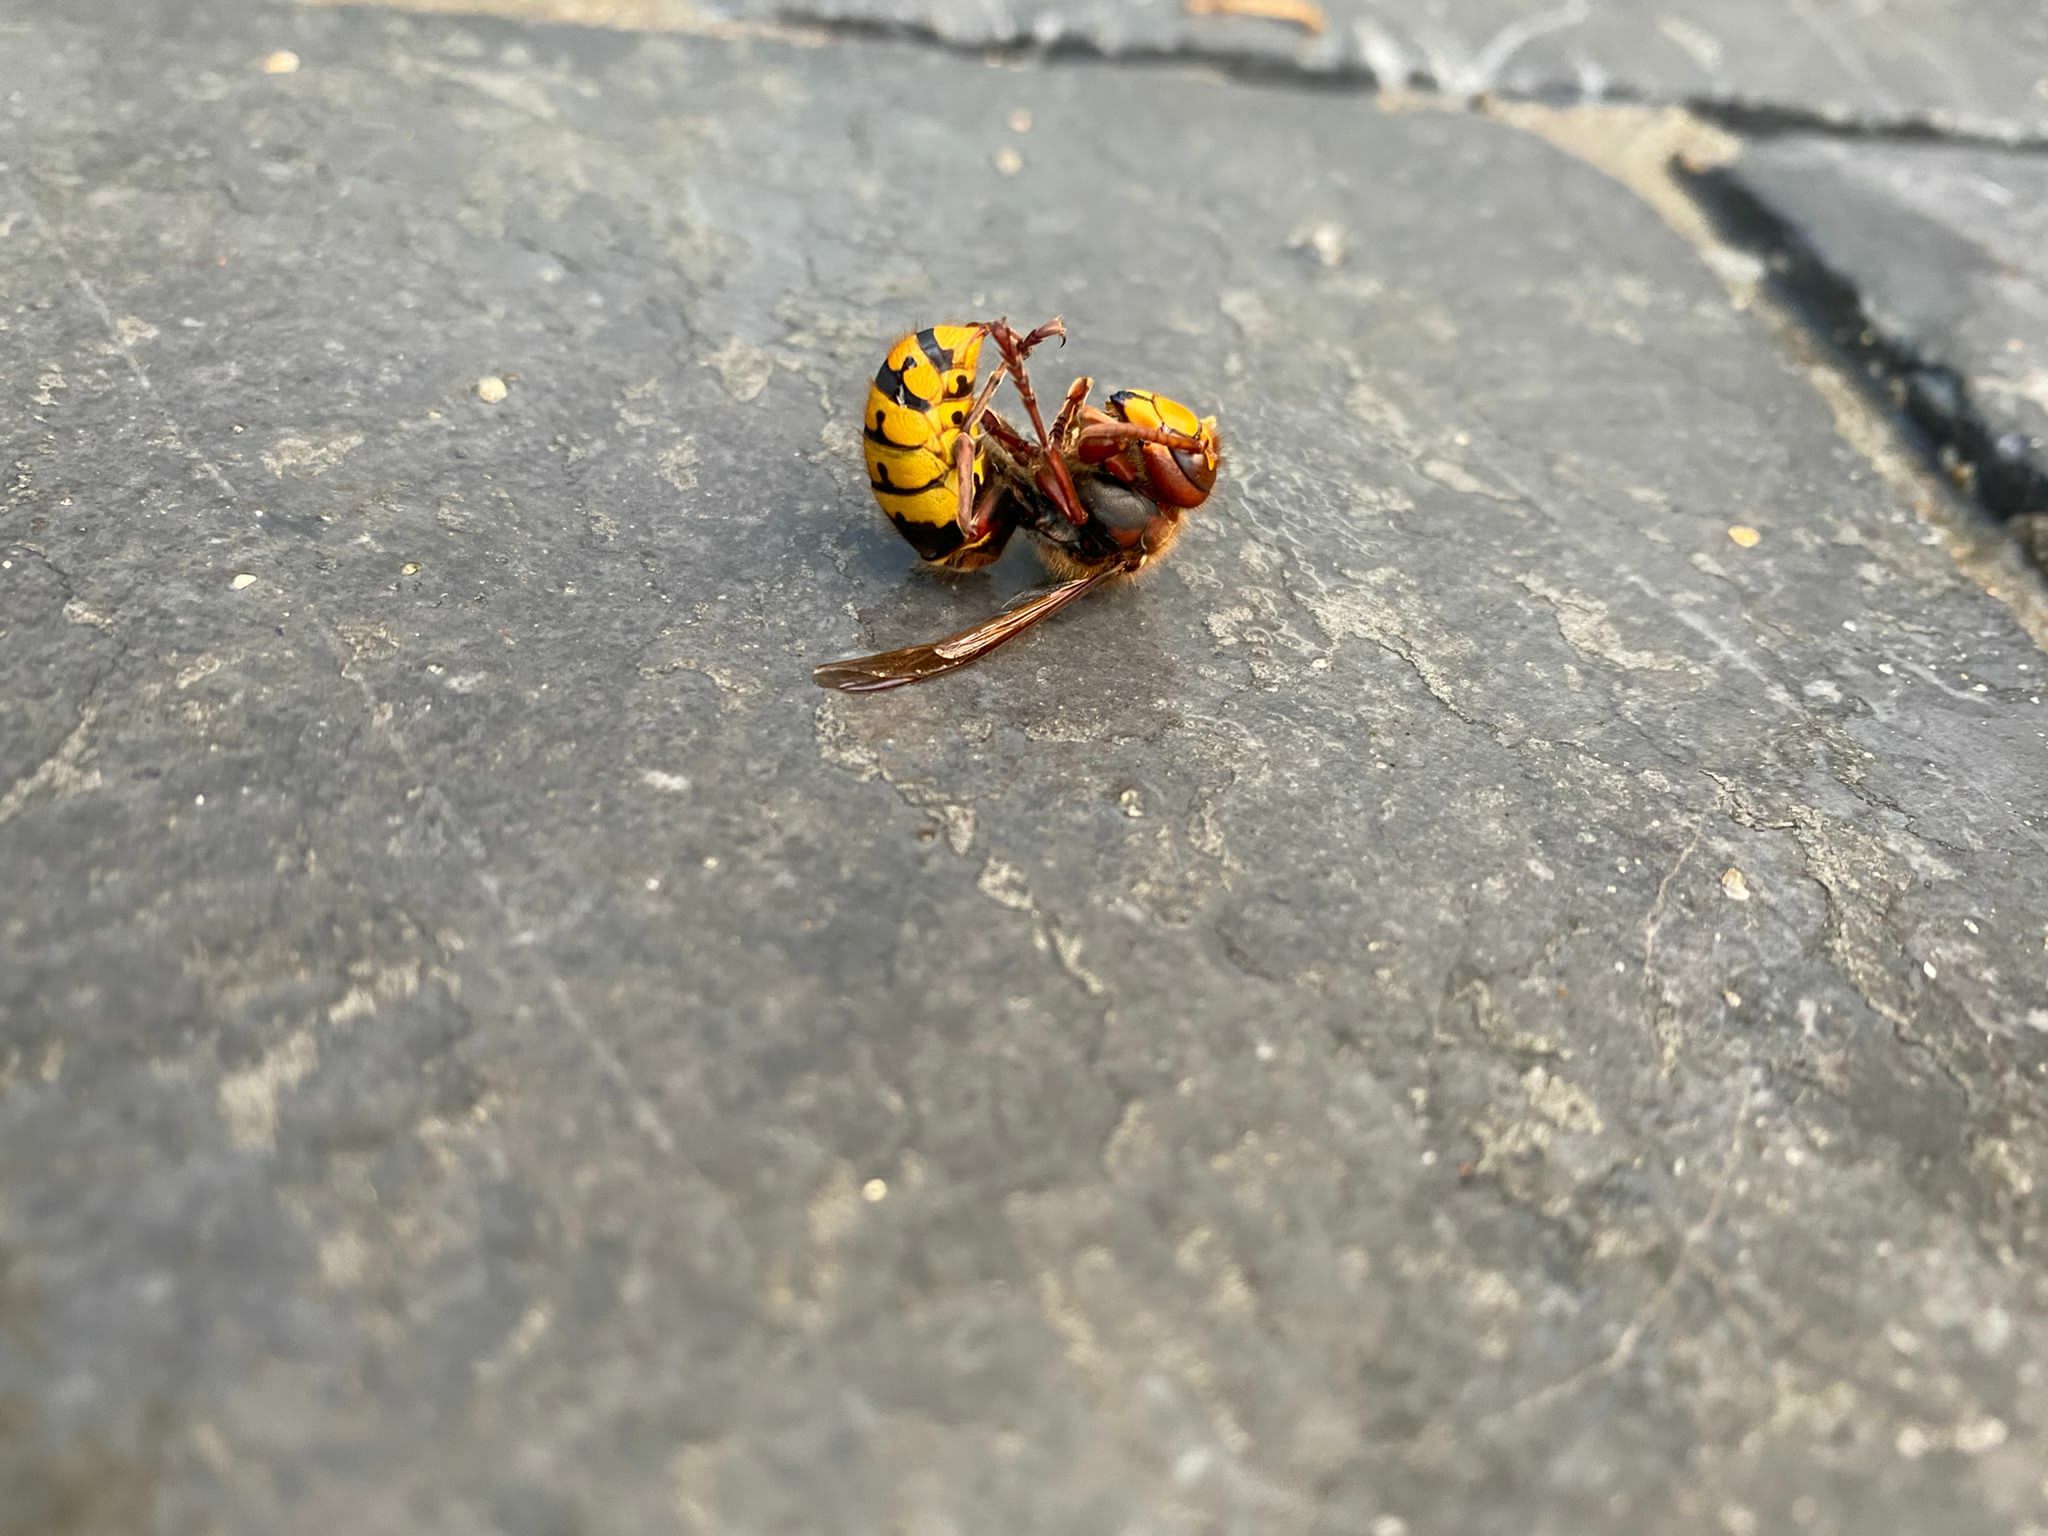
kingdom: Animalia
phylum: Arthropoda
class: Insecta
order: Hymenoptera
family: Vespidae
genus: Vespa
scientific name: Vespa crabro
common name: Hornet
